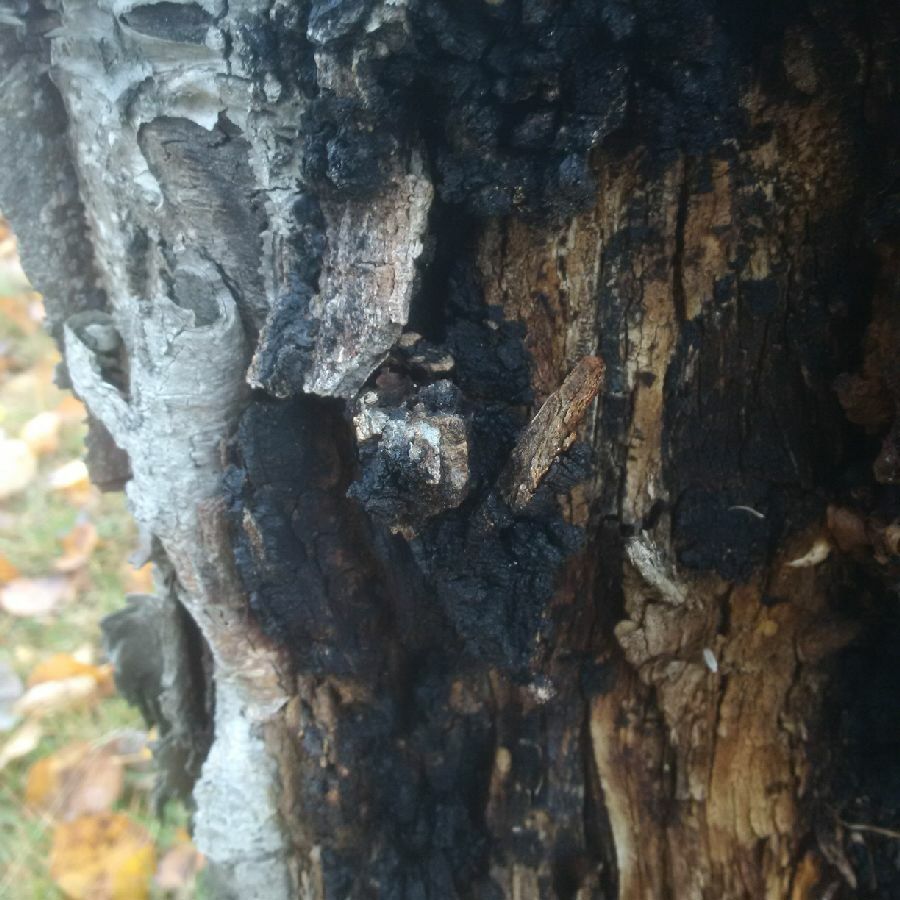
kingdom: Fungi
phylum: Basidiomycota
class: Agaricomycetes
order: Hymenochaetales
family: Hymenochaetaceae
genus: Inonotus
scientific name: Inonotus obliquus
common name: Chaga
